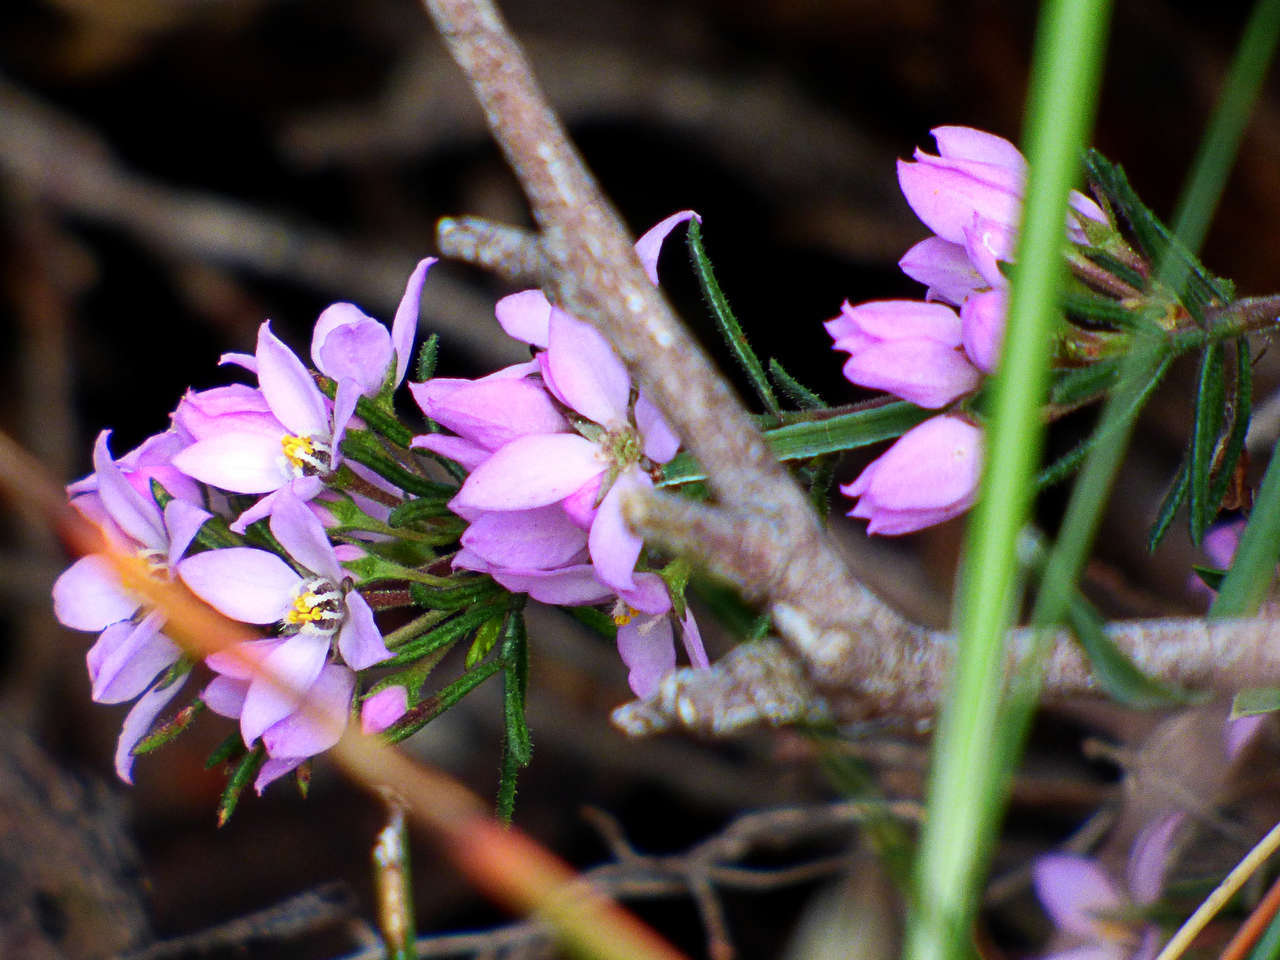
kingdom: Plantae
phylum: Tracheophyta
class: Magnoliopsida
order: Sapindales
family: Rutaceae
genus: Boronia
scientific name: Boronia pilosa
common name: Hairy boronia
